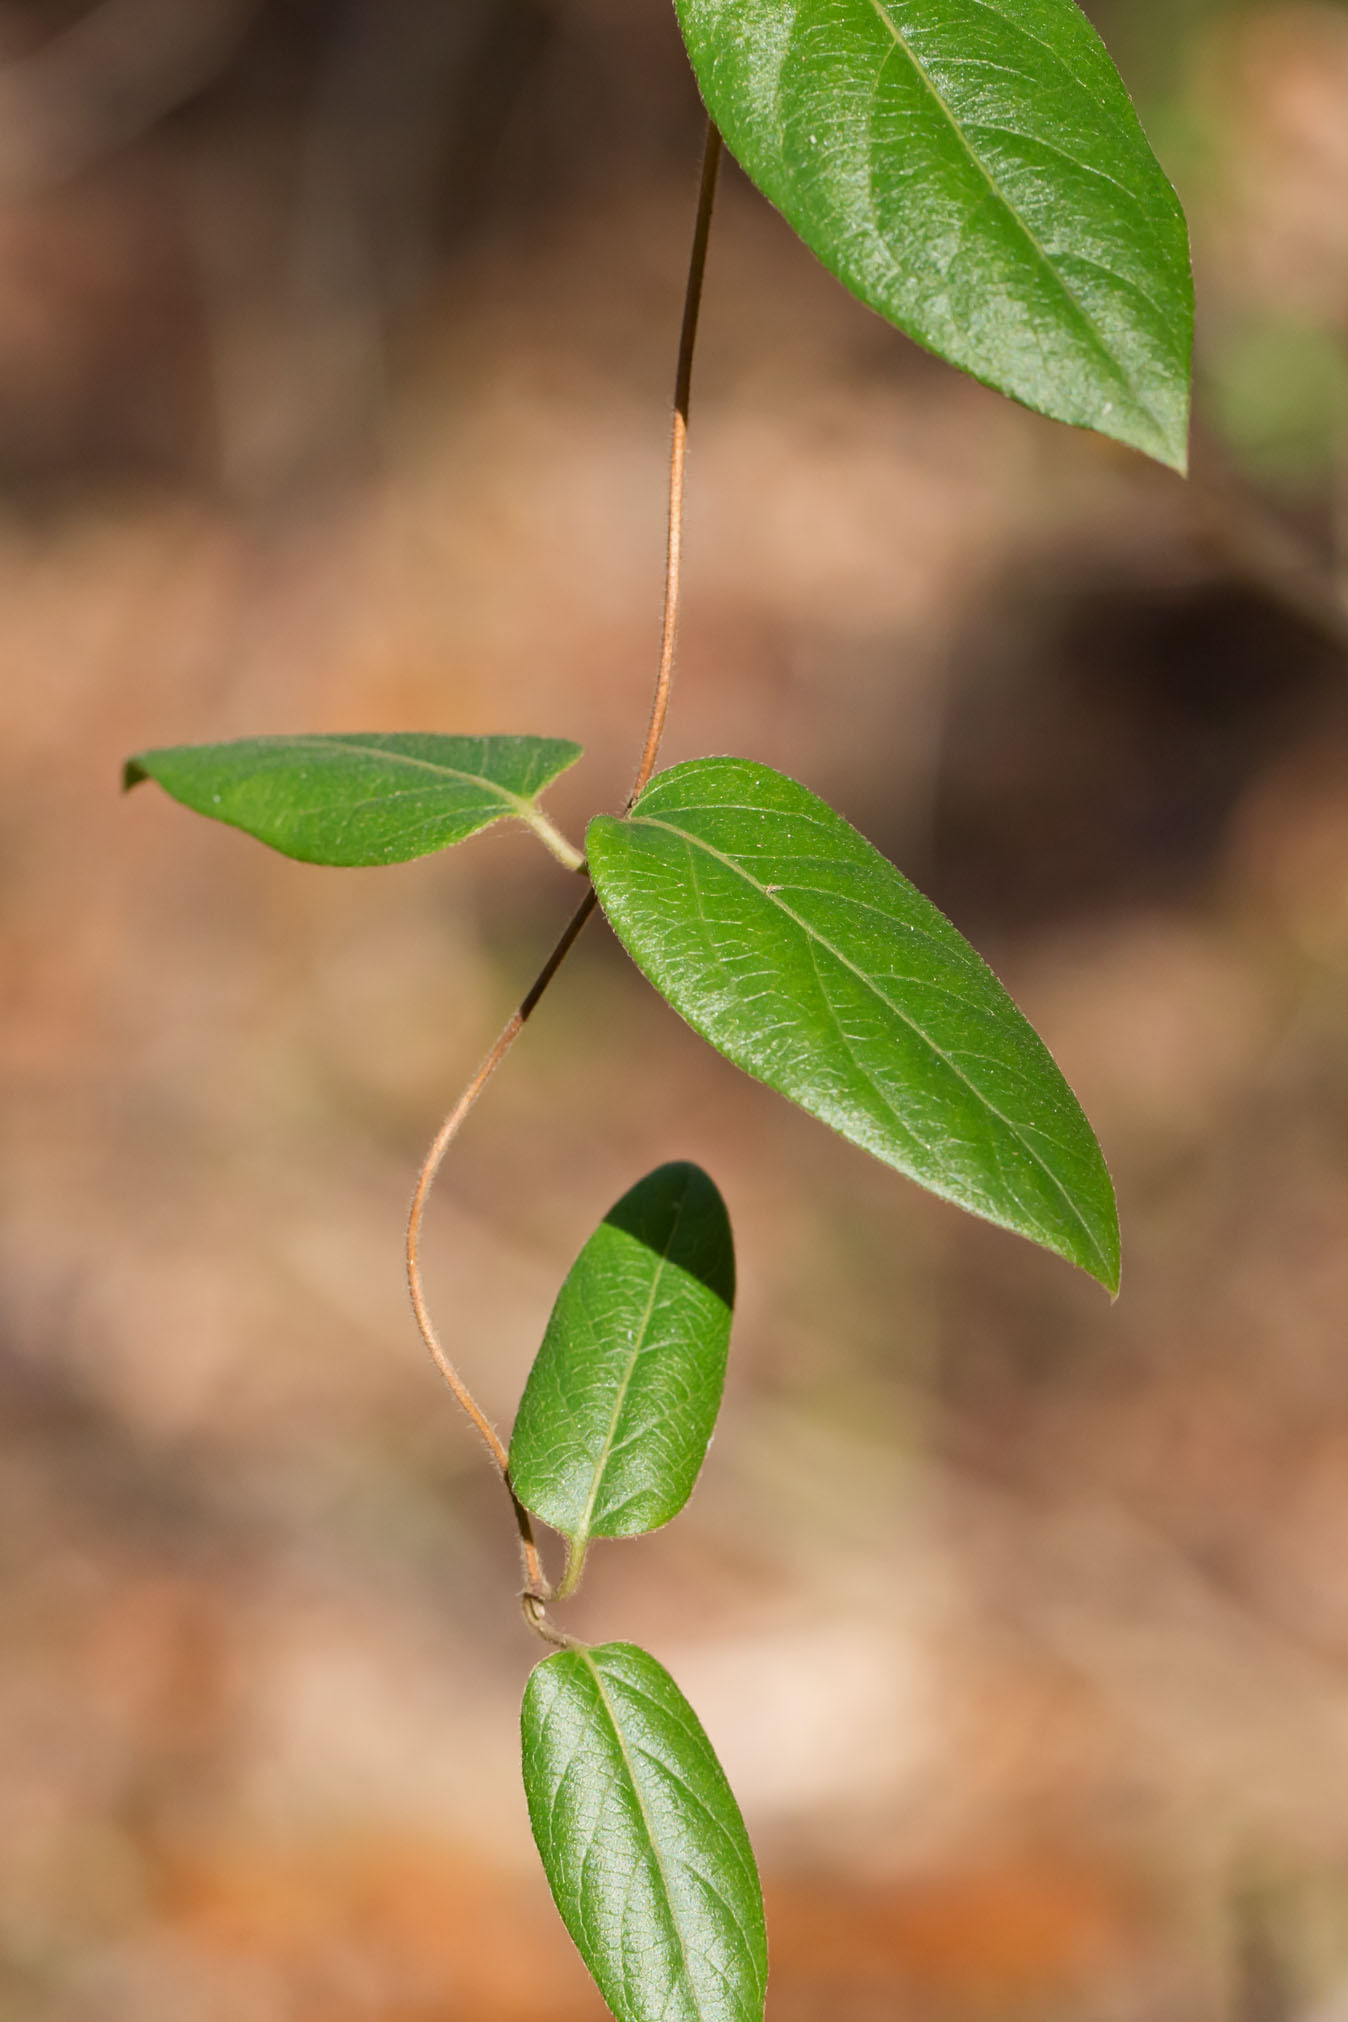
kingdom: Plantae
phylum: Tracheophyta
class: Magnoliopsida
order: Dipsacales
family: Caprifoliaceae
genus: Lonicera
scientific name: Lonicera japonica
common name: Japanese honeysuckle
